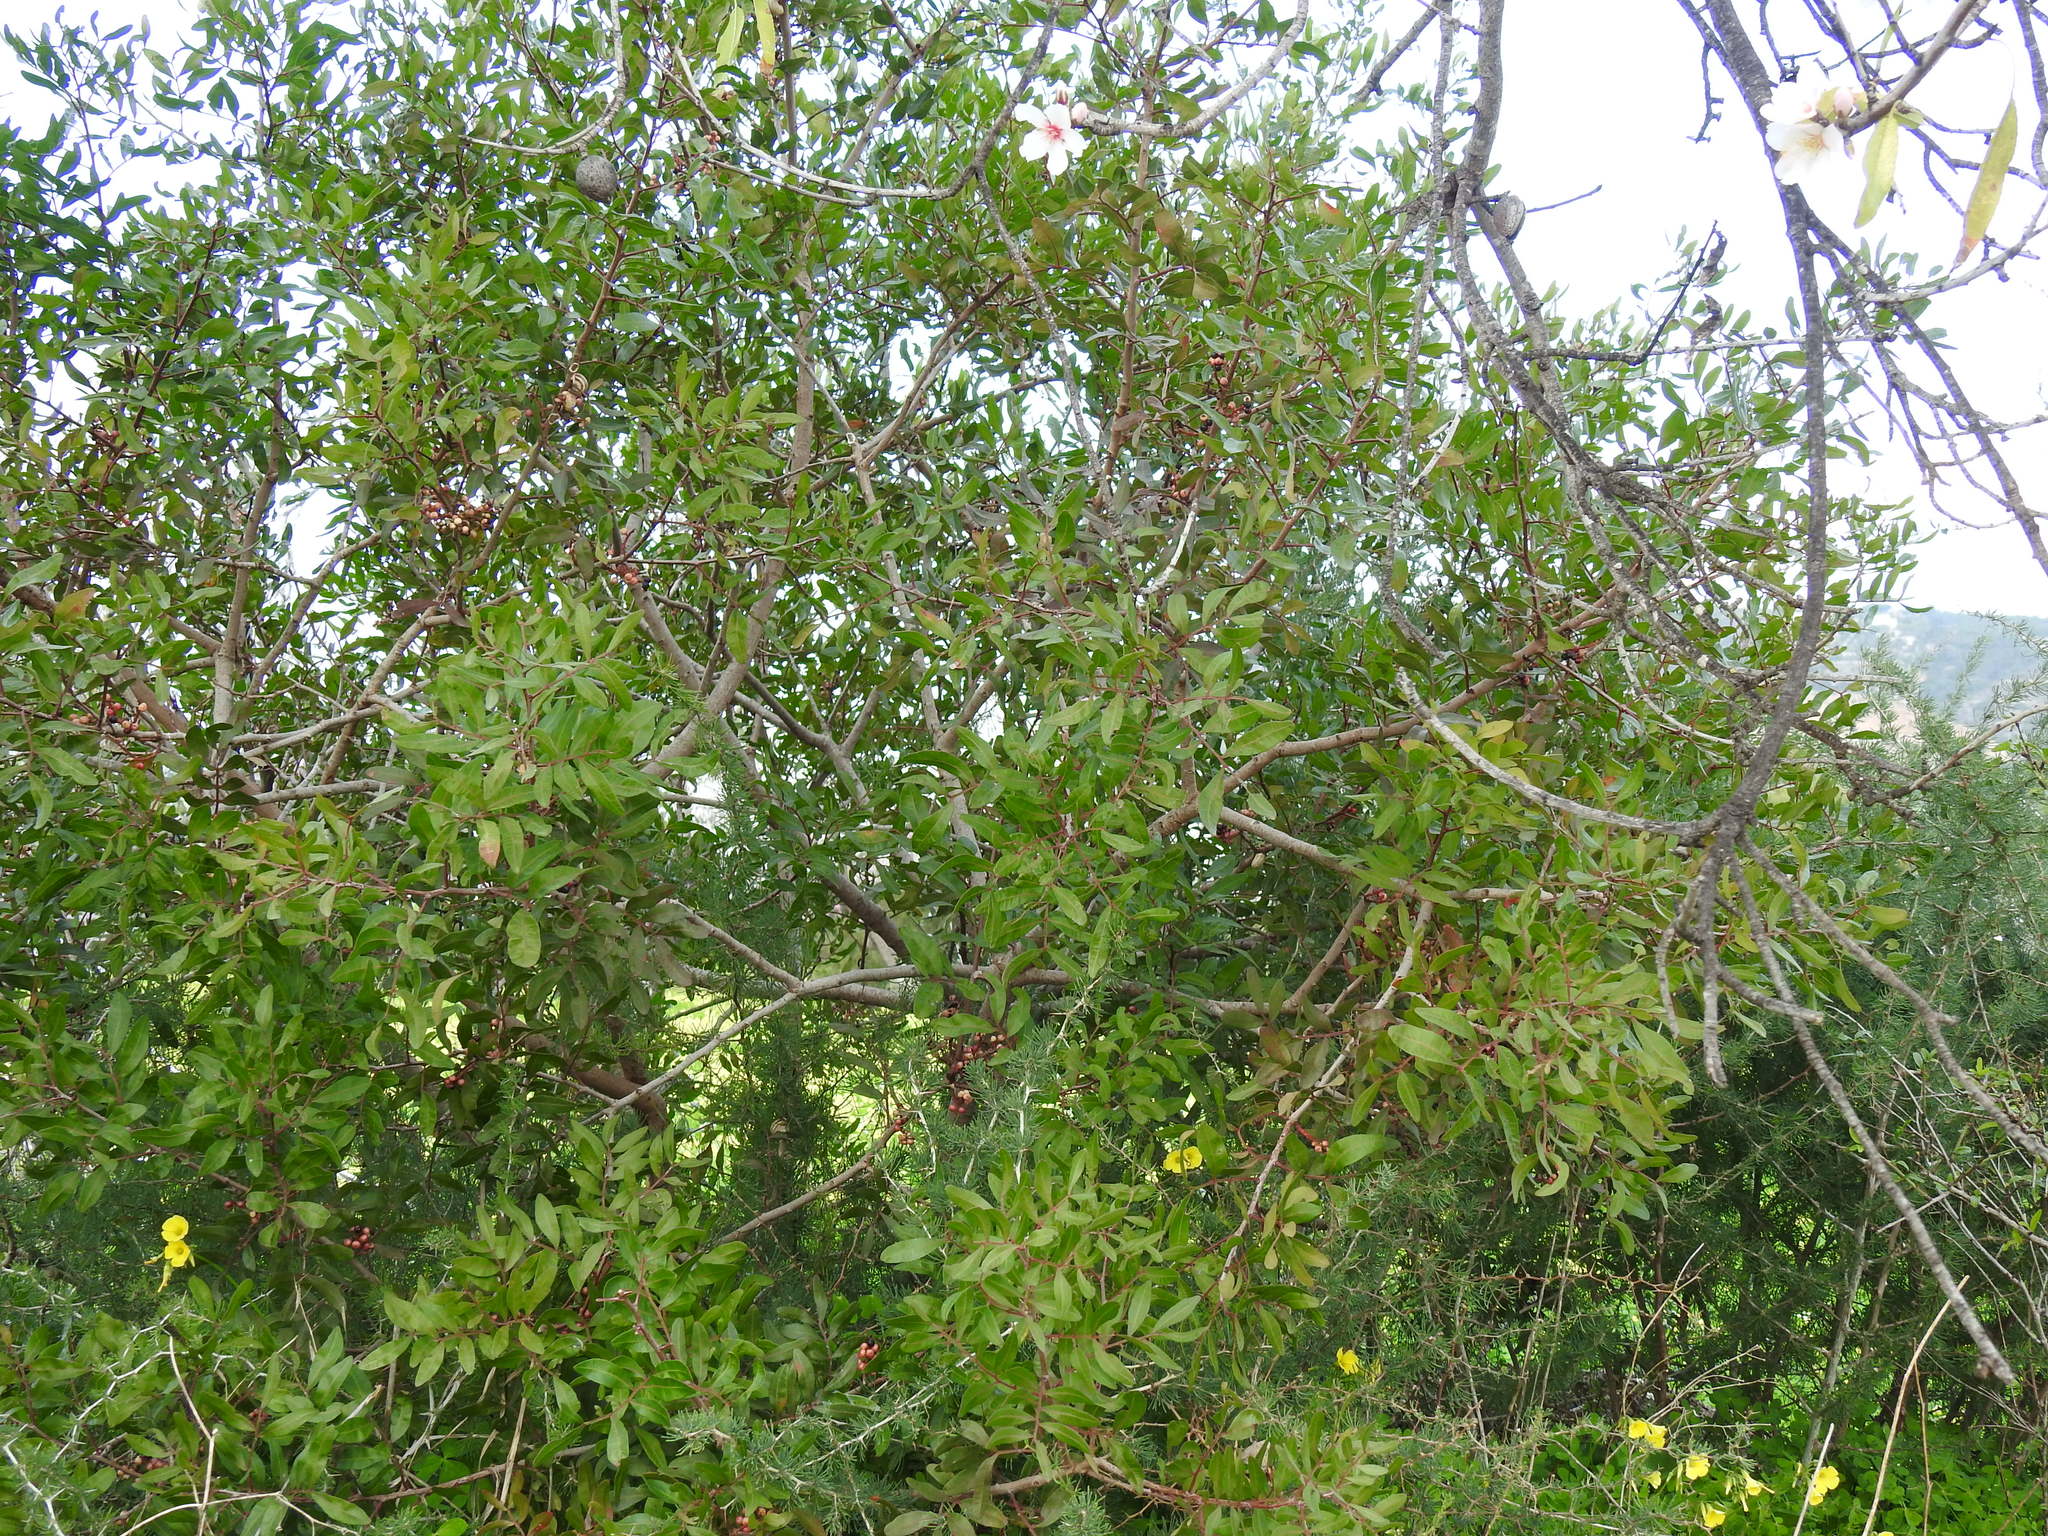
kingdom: Plantae
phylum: Tracheophyta
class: Magnoliopsida
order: Sapindales
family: Anacardiaceae
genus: Pistacia
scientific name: Pistacia lentiscus
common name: Lentisk
